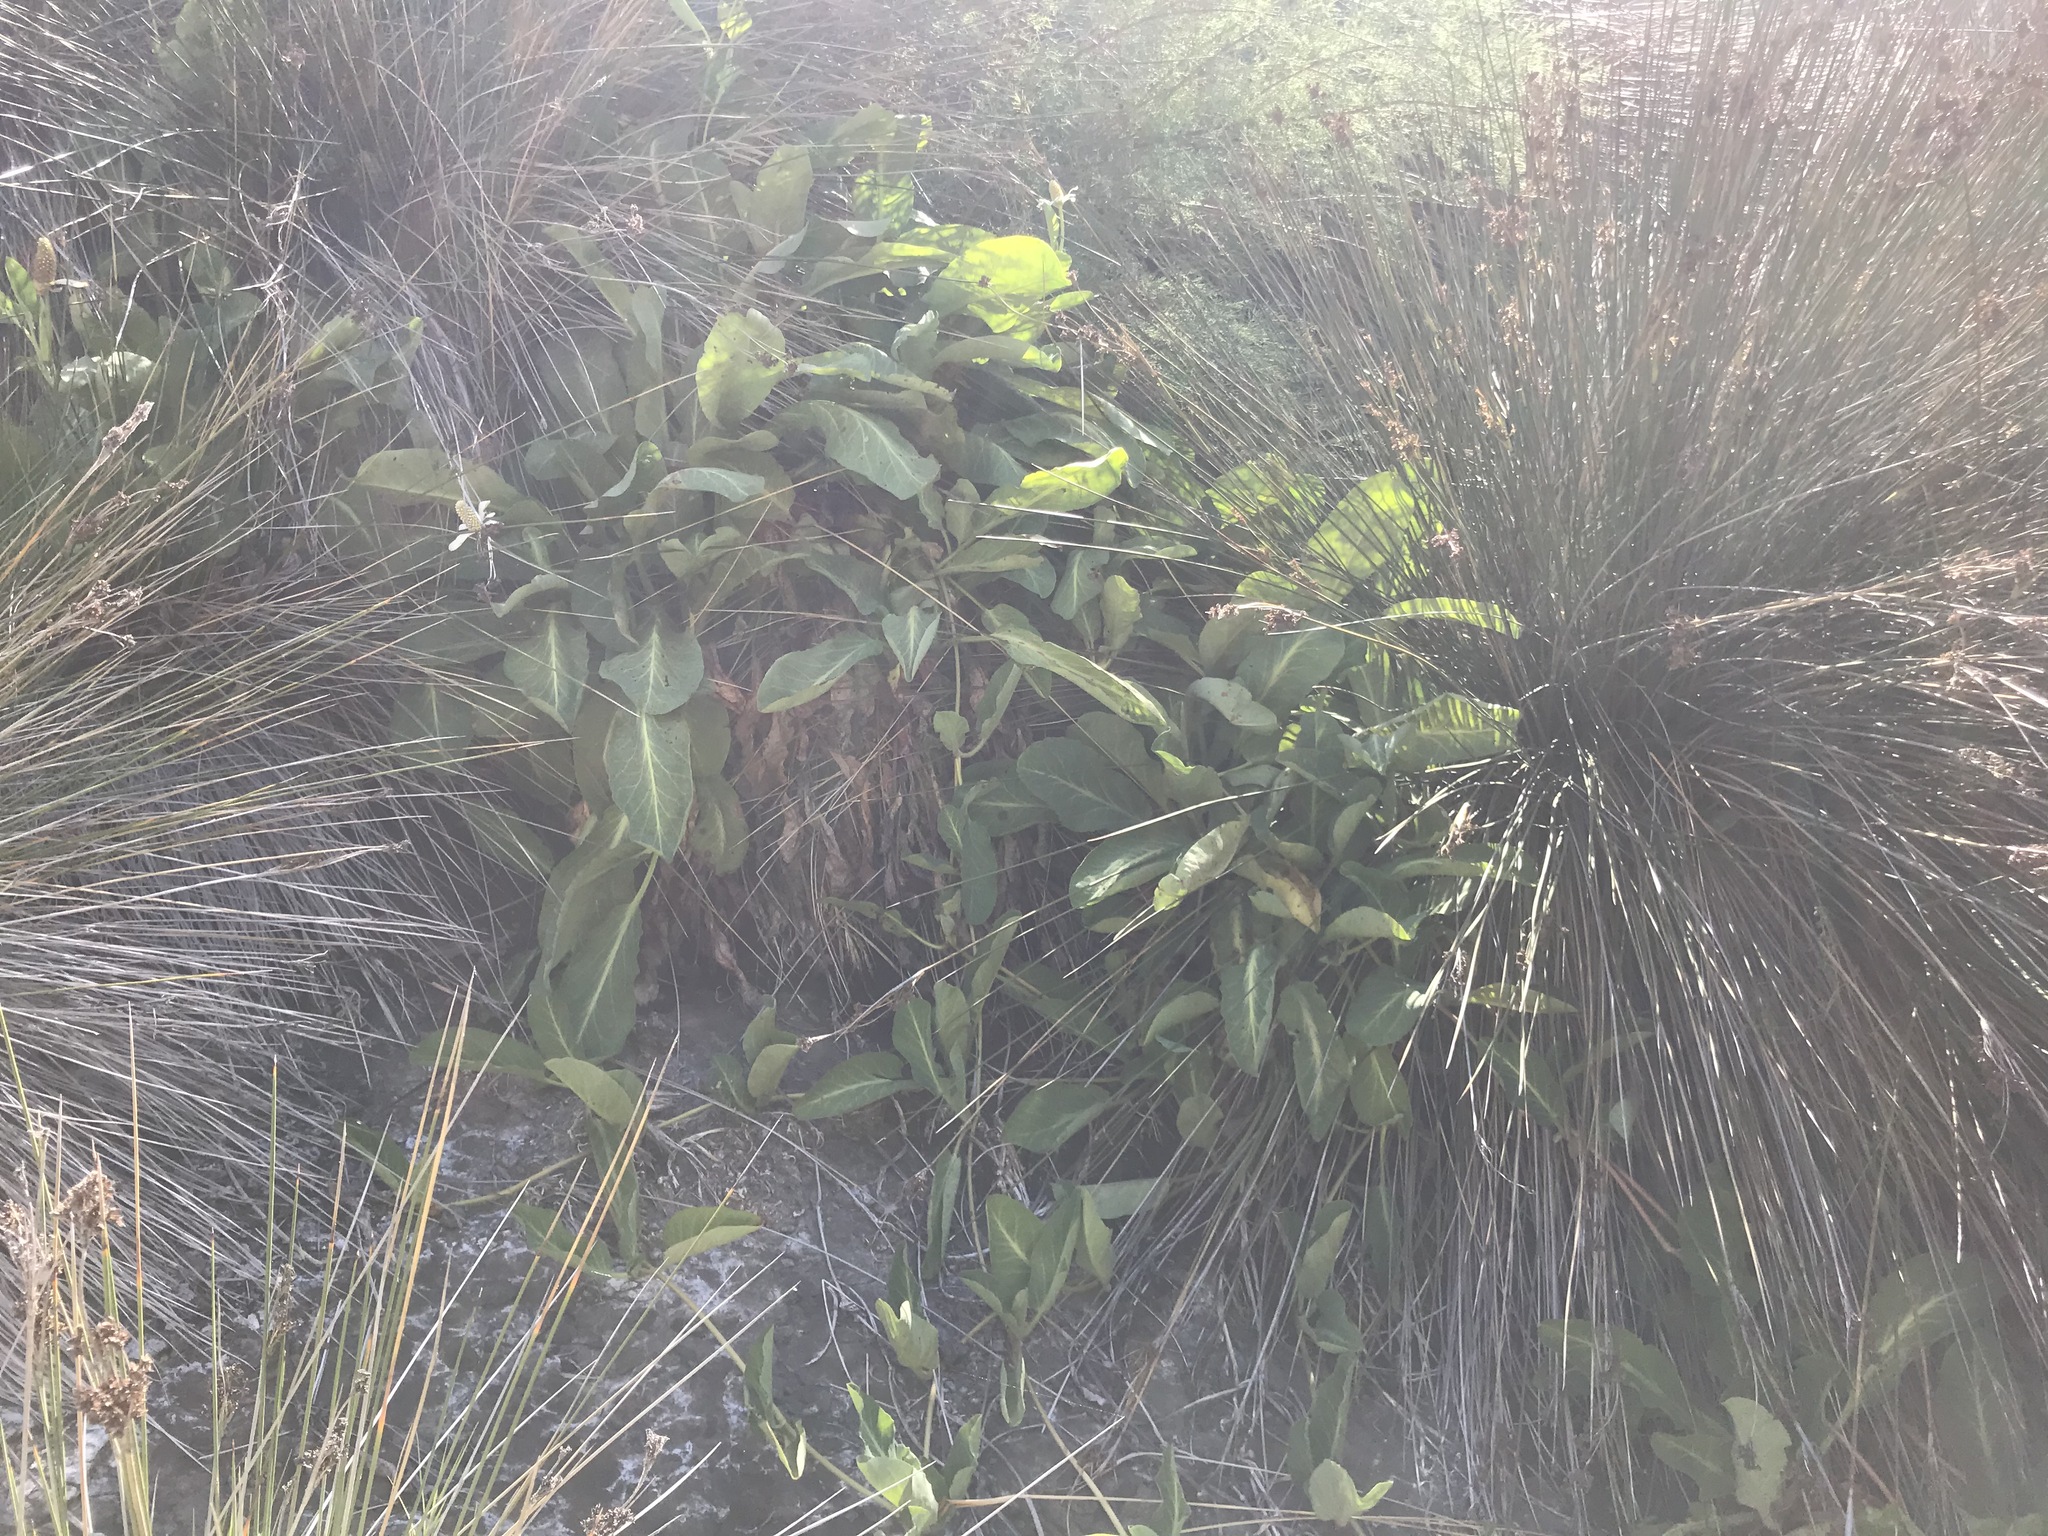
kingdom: Plantae
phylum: Tracheophyta
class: Magnoliopsida
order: Piperales
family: Saururaceae
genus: Anemopsis
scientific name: Anemopsis californica
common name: Apache-beads
